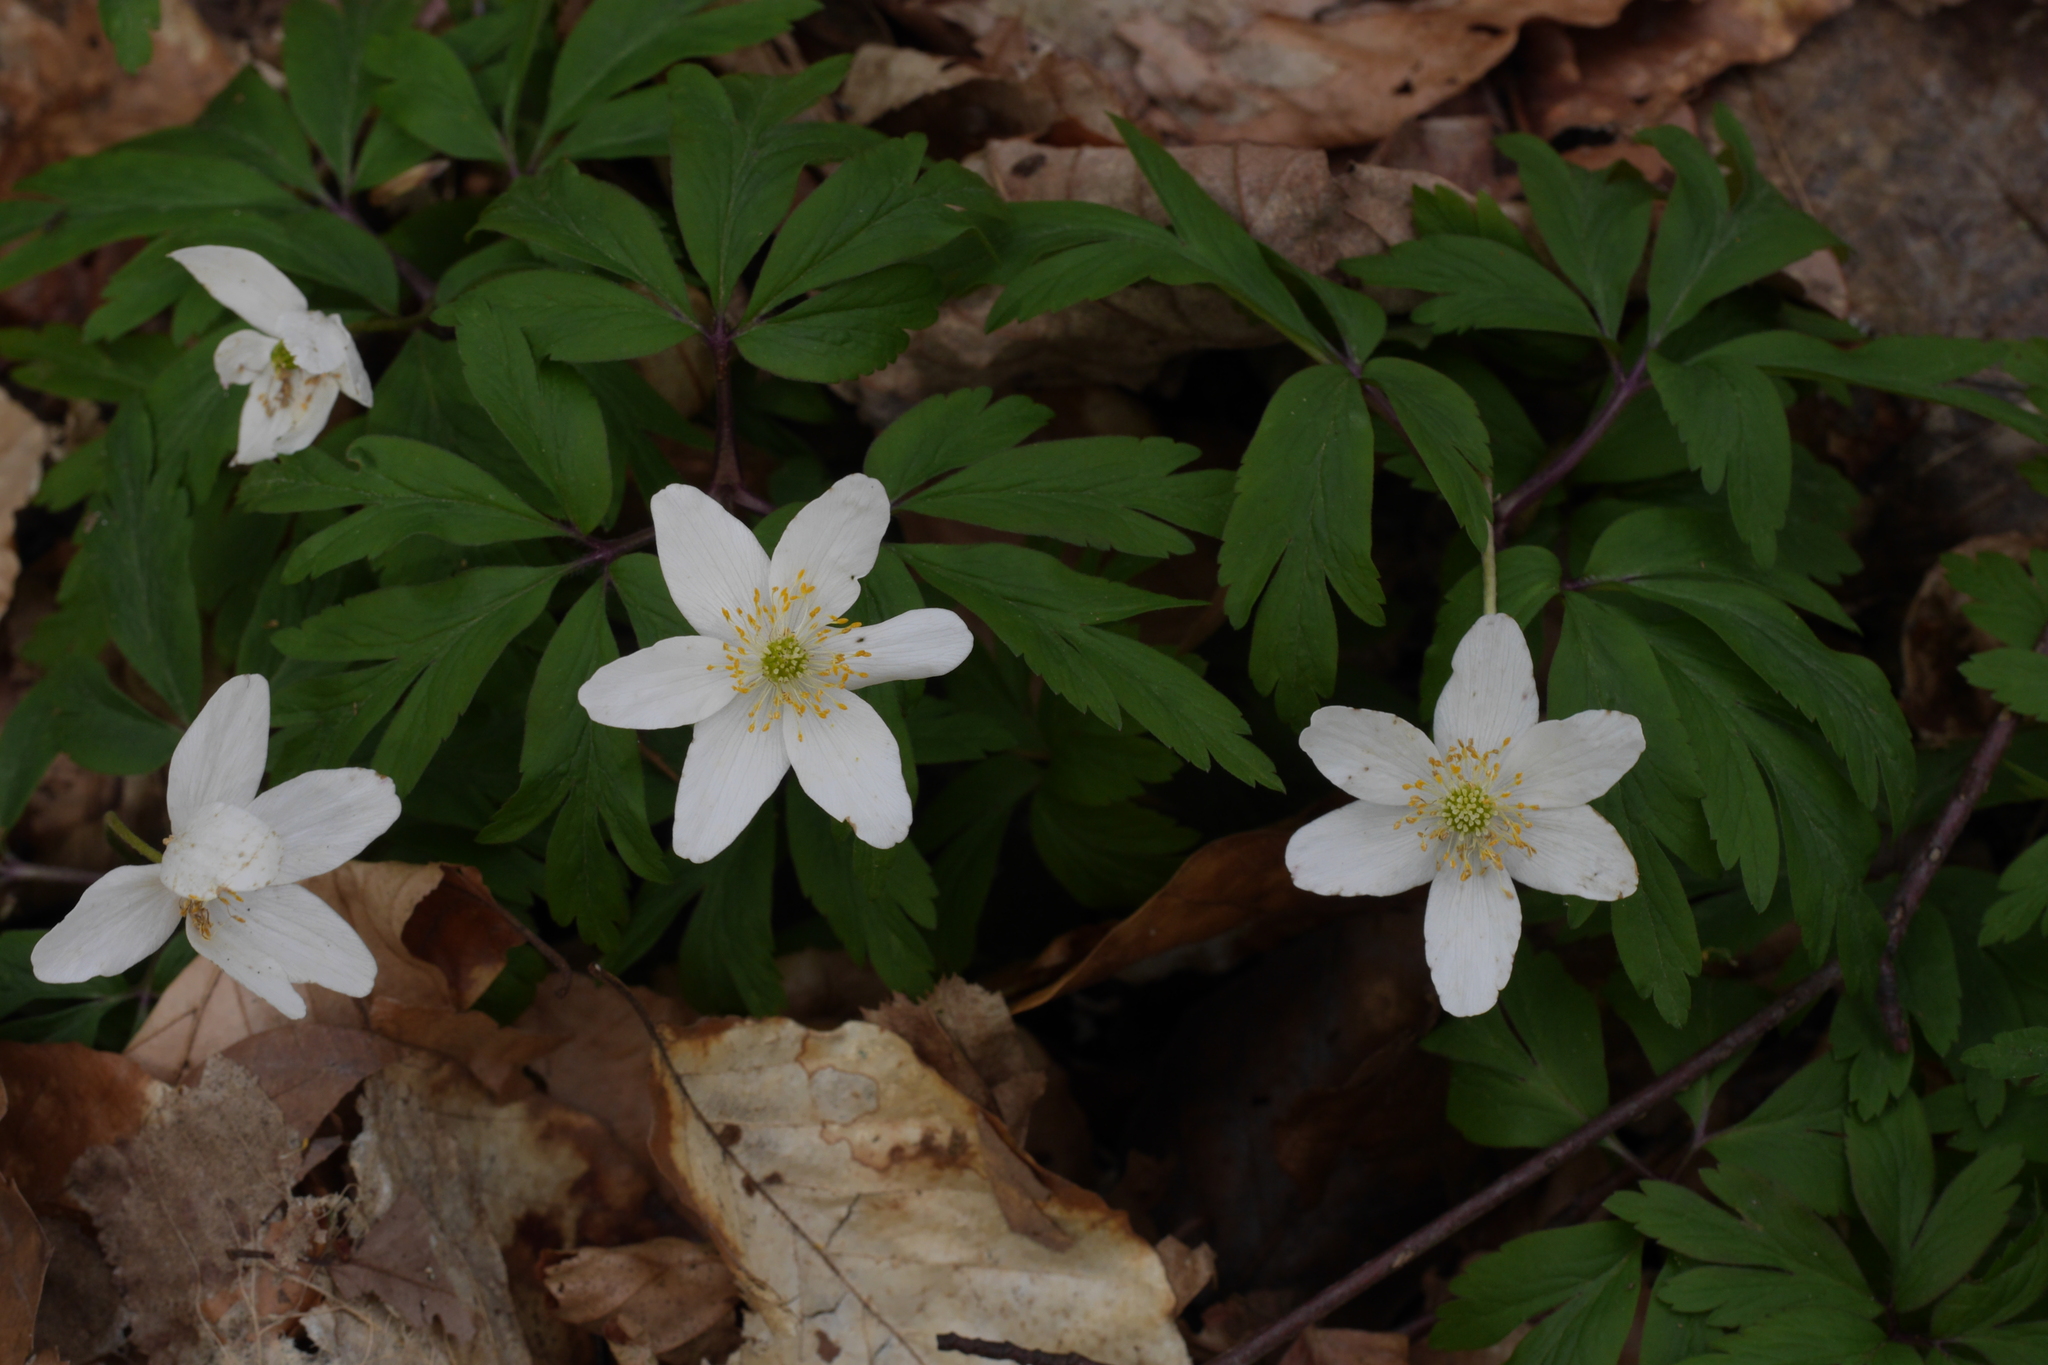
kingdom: Plantae
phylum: Tracheophyta
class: Magnoliopsida
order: Ranunculales
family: Ranunculaceae
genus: Anemone
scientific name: Anemone nemorosa
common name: Wood anemone
